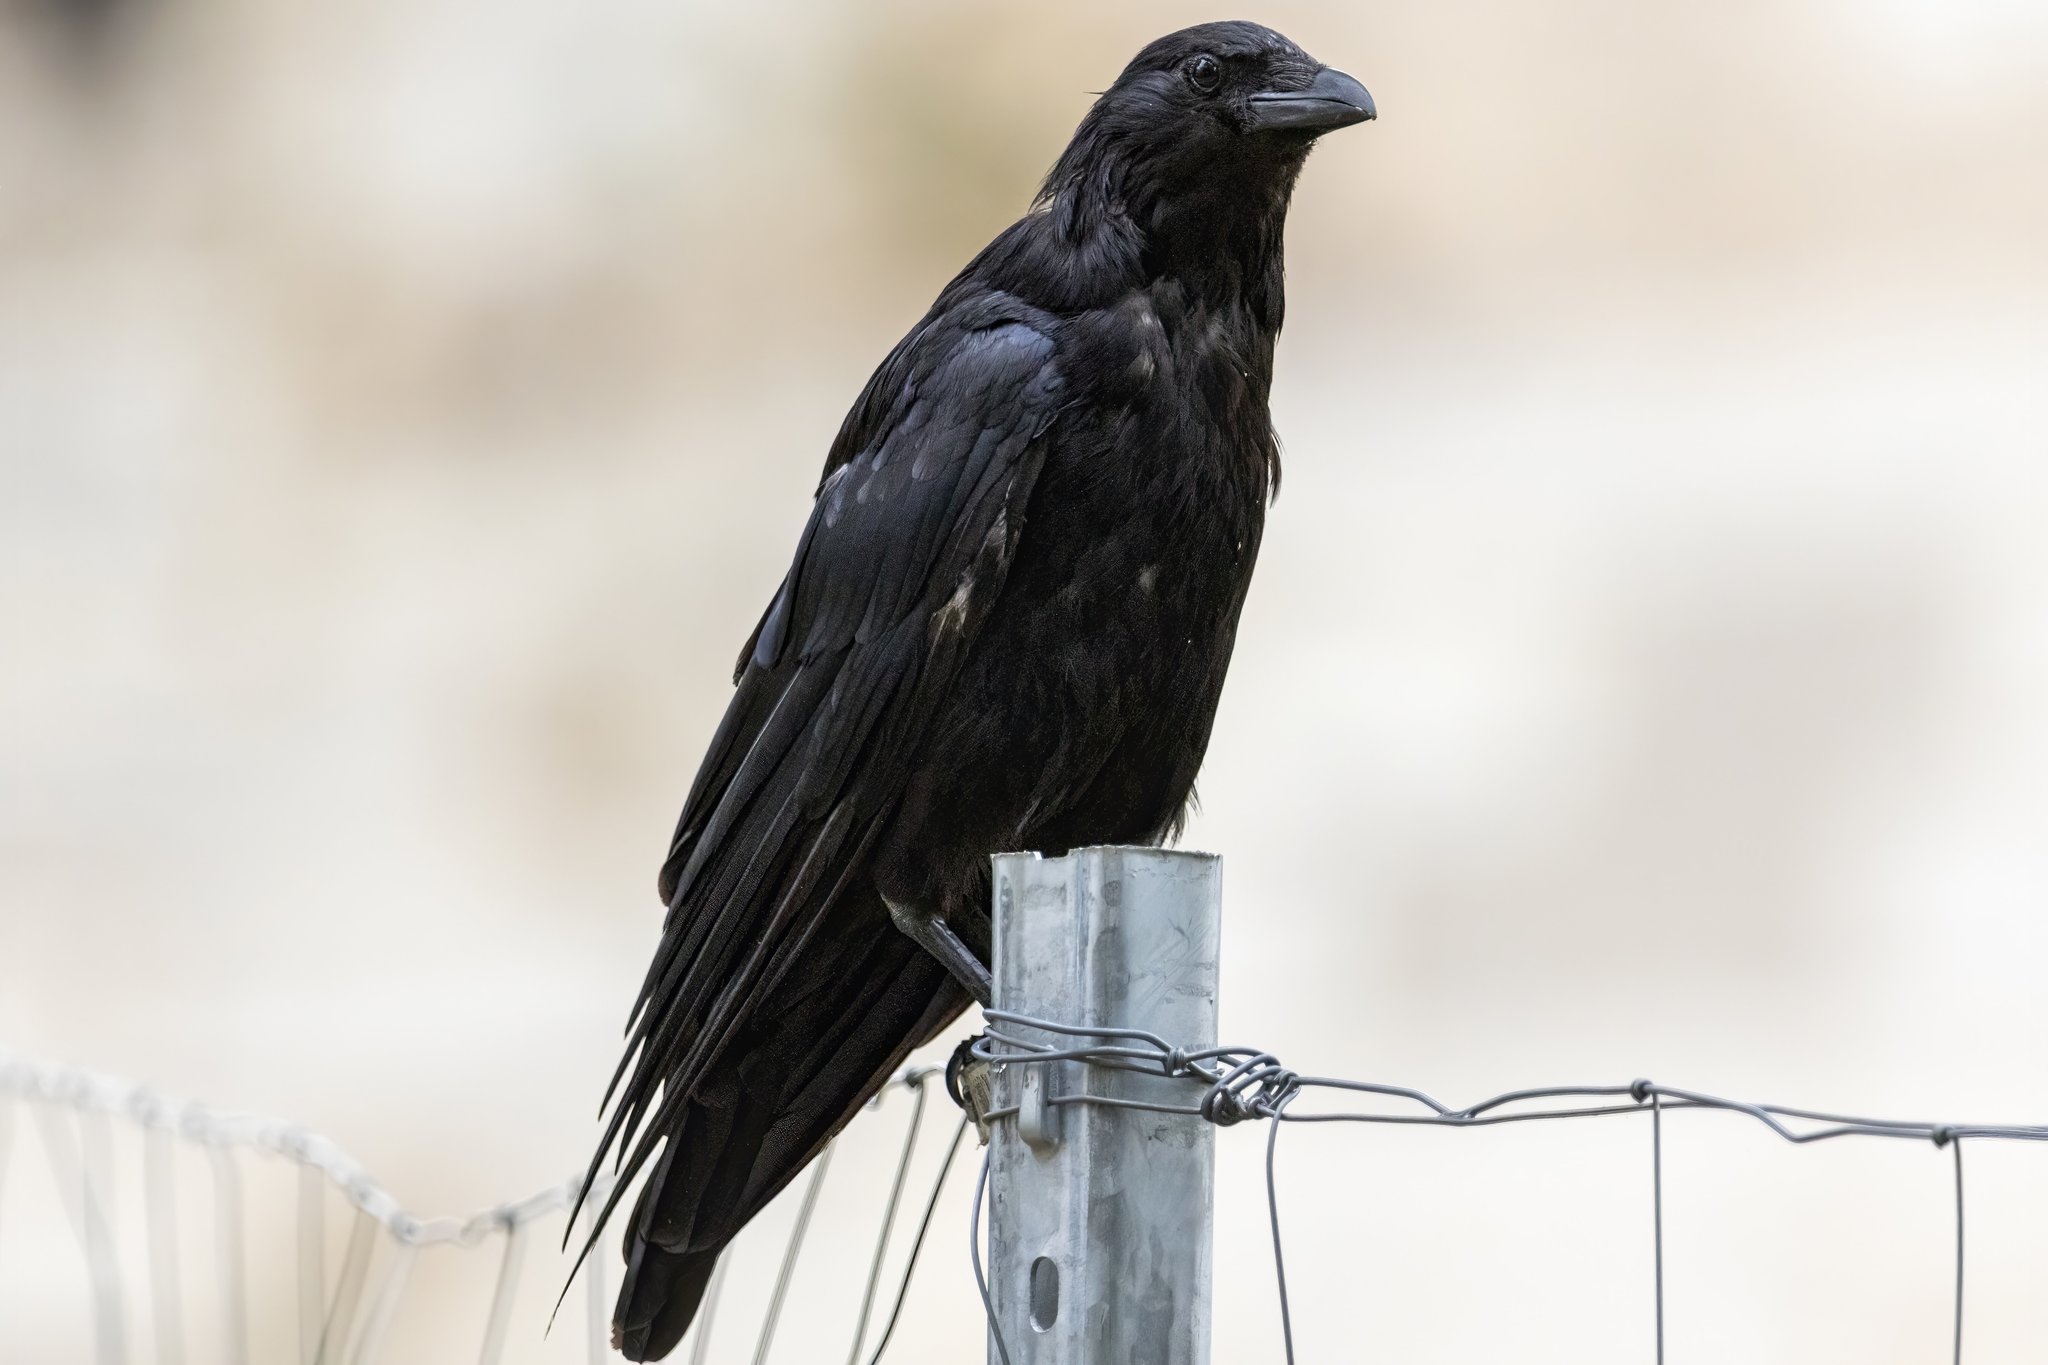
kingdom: Animalia
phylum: Chordata
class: Aves
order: Passeriformes
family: Corvidae
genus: Corvus
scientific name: Corvus corone
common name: Carrion crow
